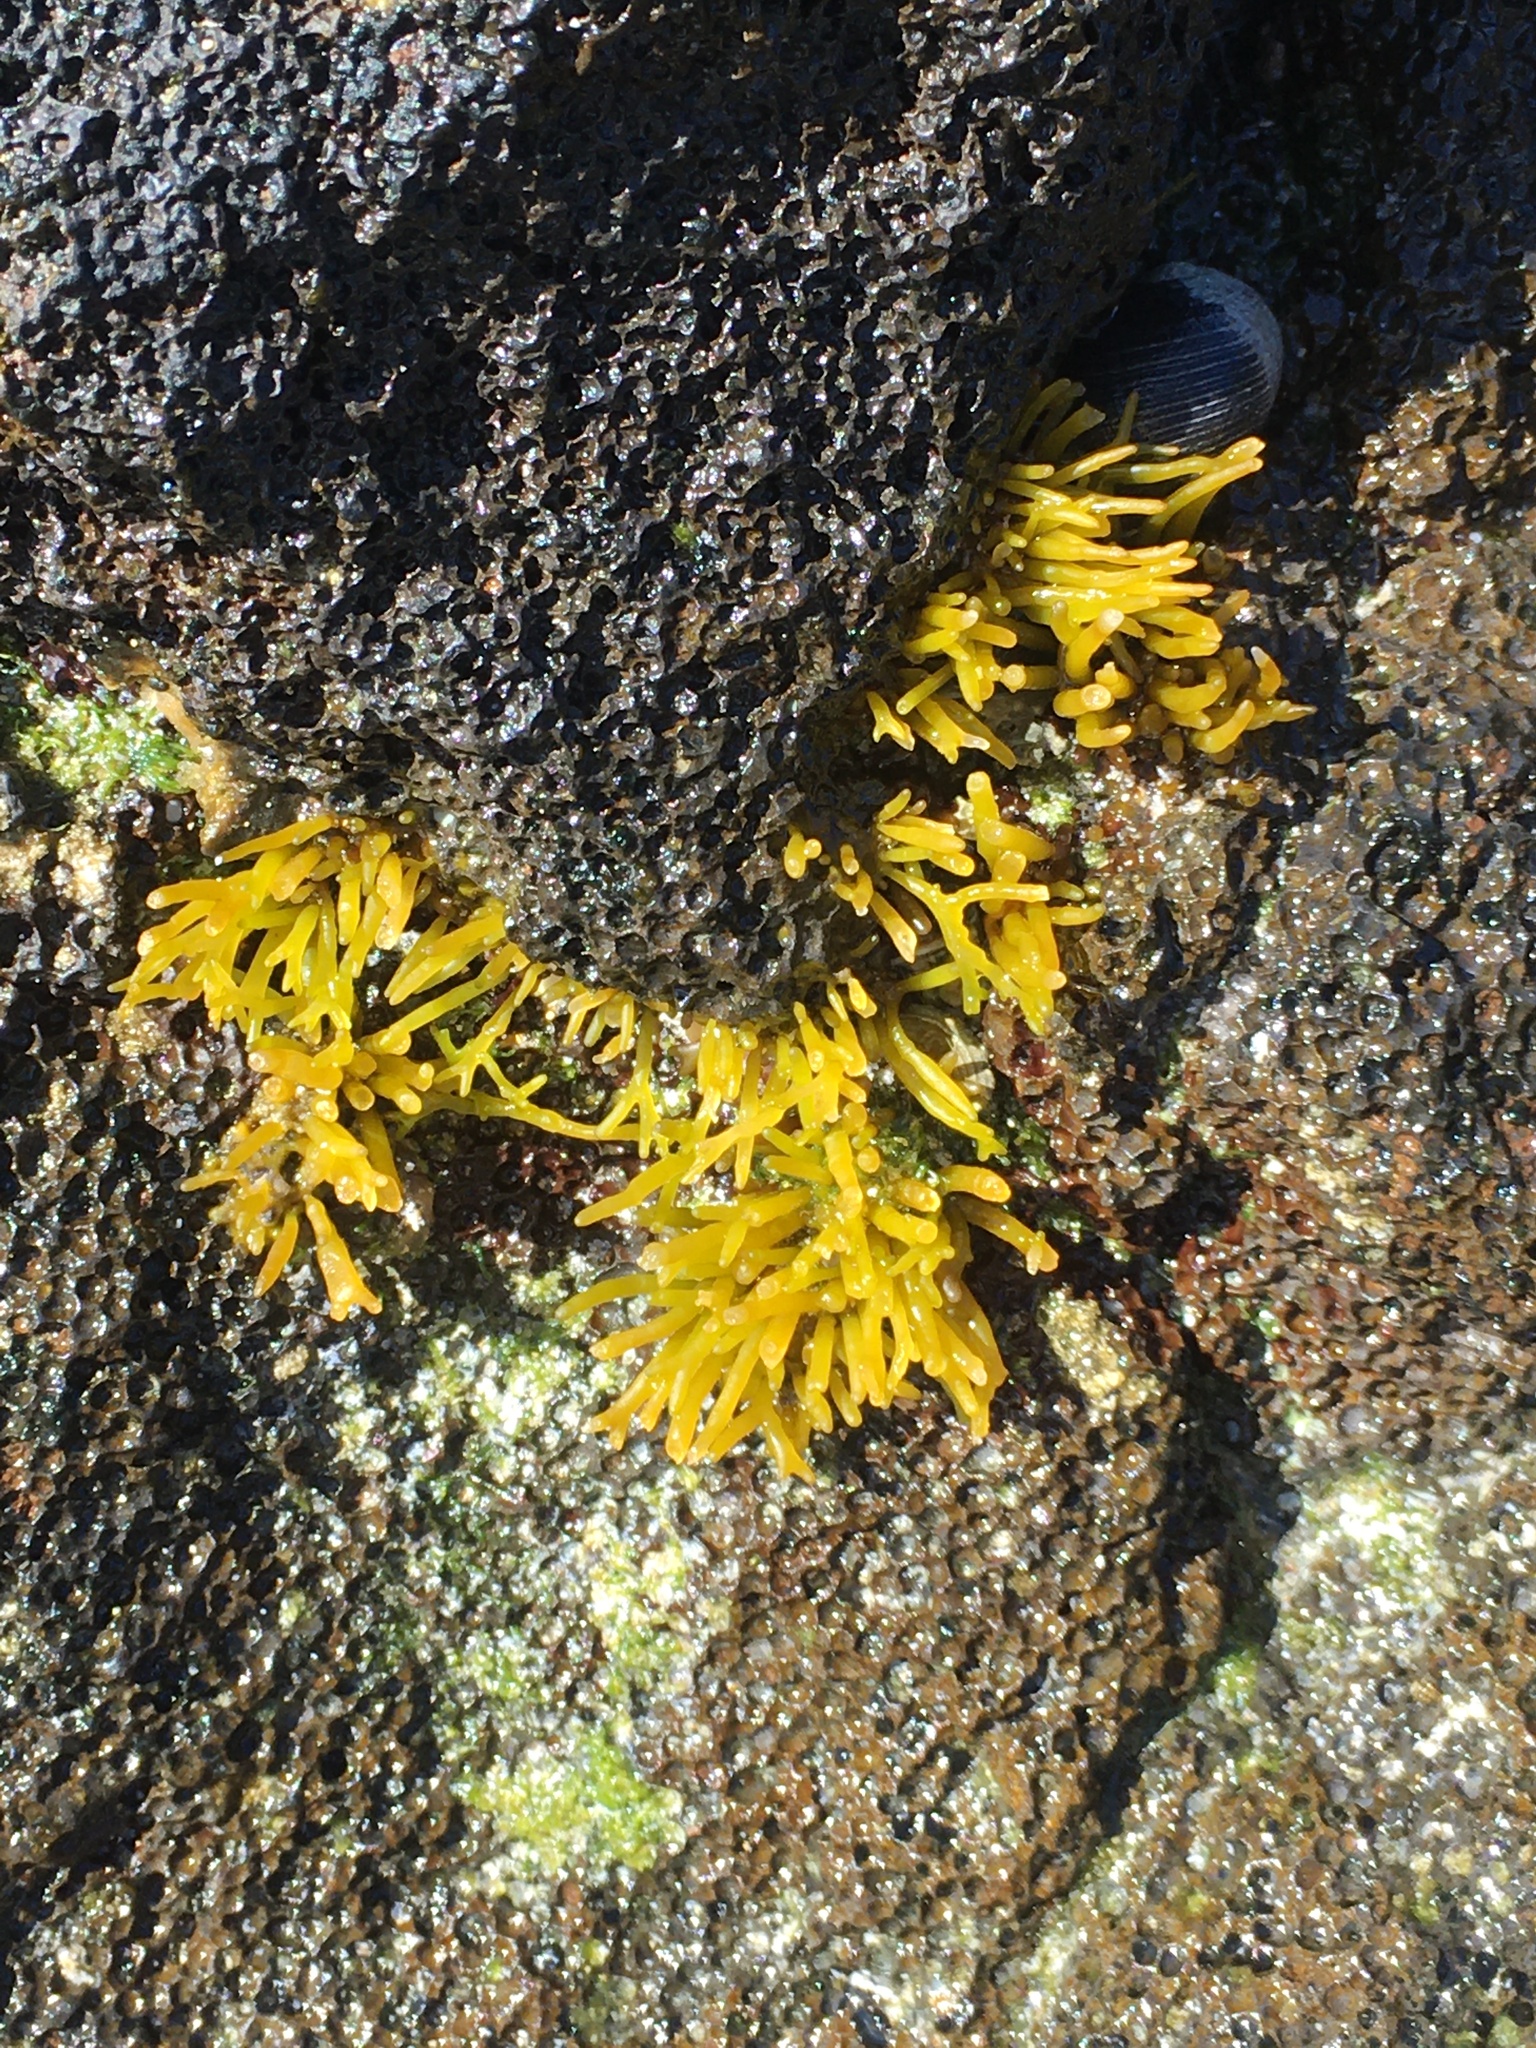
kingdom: Plantae
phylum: Rhodophyta
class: Florideophyceae
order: Gigartinales
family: Phyllophoraceae
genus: Gymnogongrus
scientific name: Gymnogongrus durvillei
